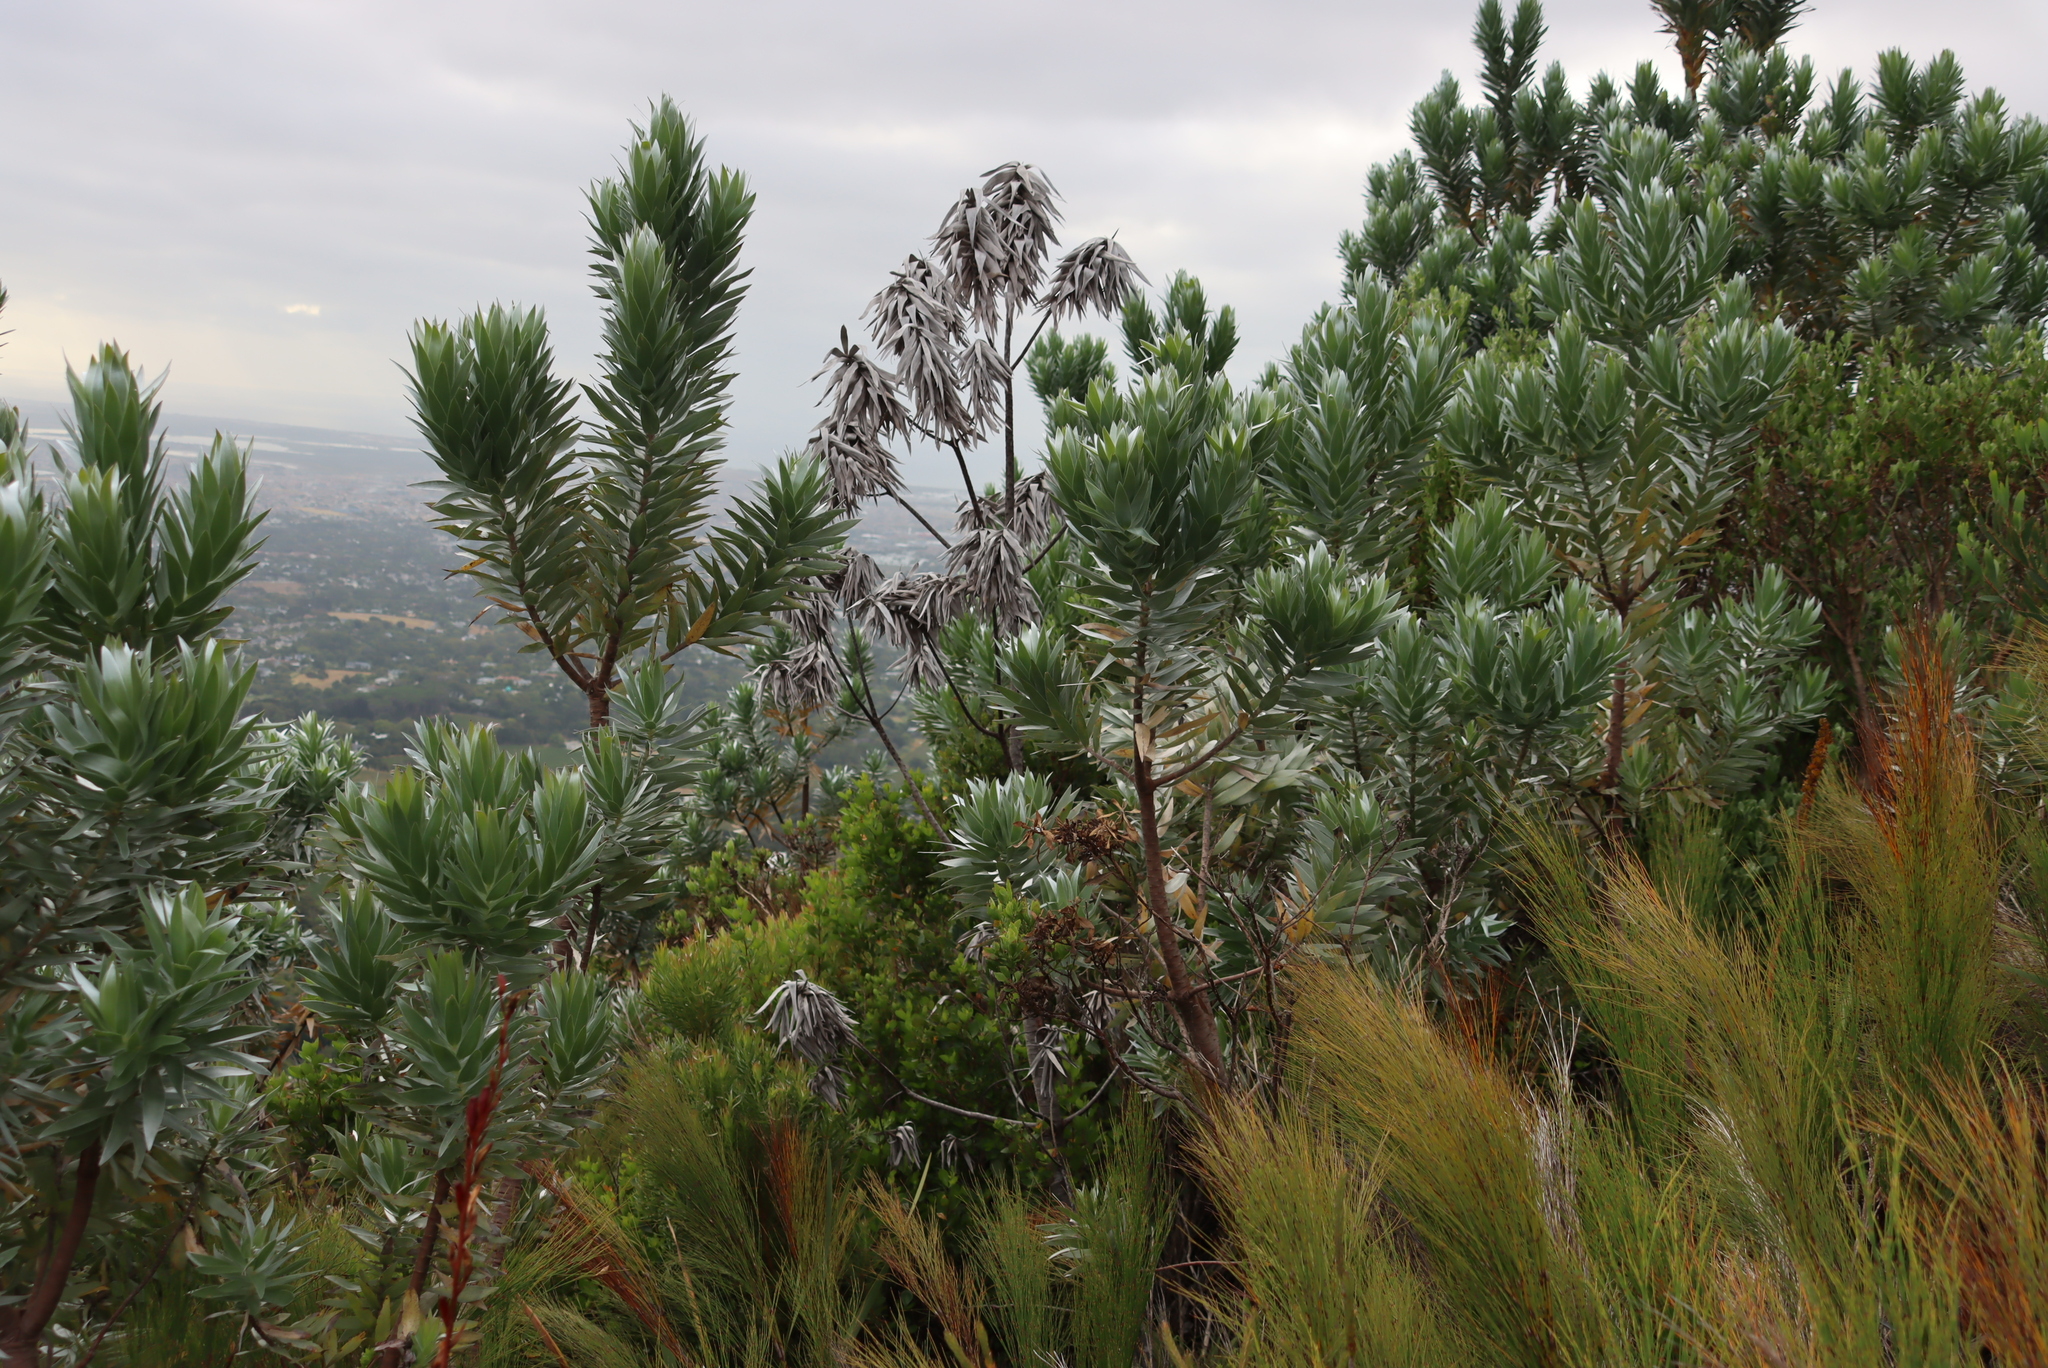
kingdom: Plantae
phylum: Tracheophyta
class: Magnoliopsida
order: Proteales
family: Proteaceae
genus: Leucadendron
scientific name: Leucadendron argenteum
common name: Cape silver tree
